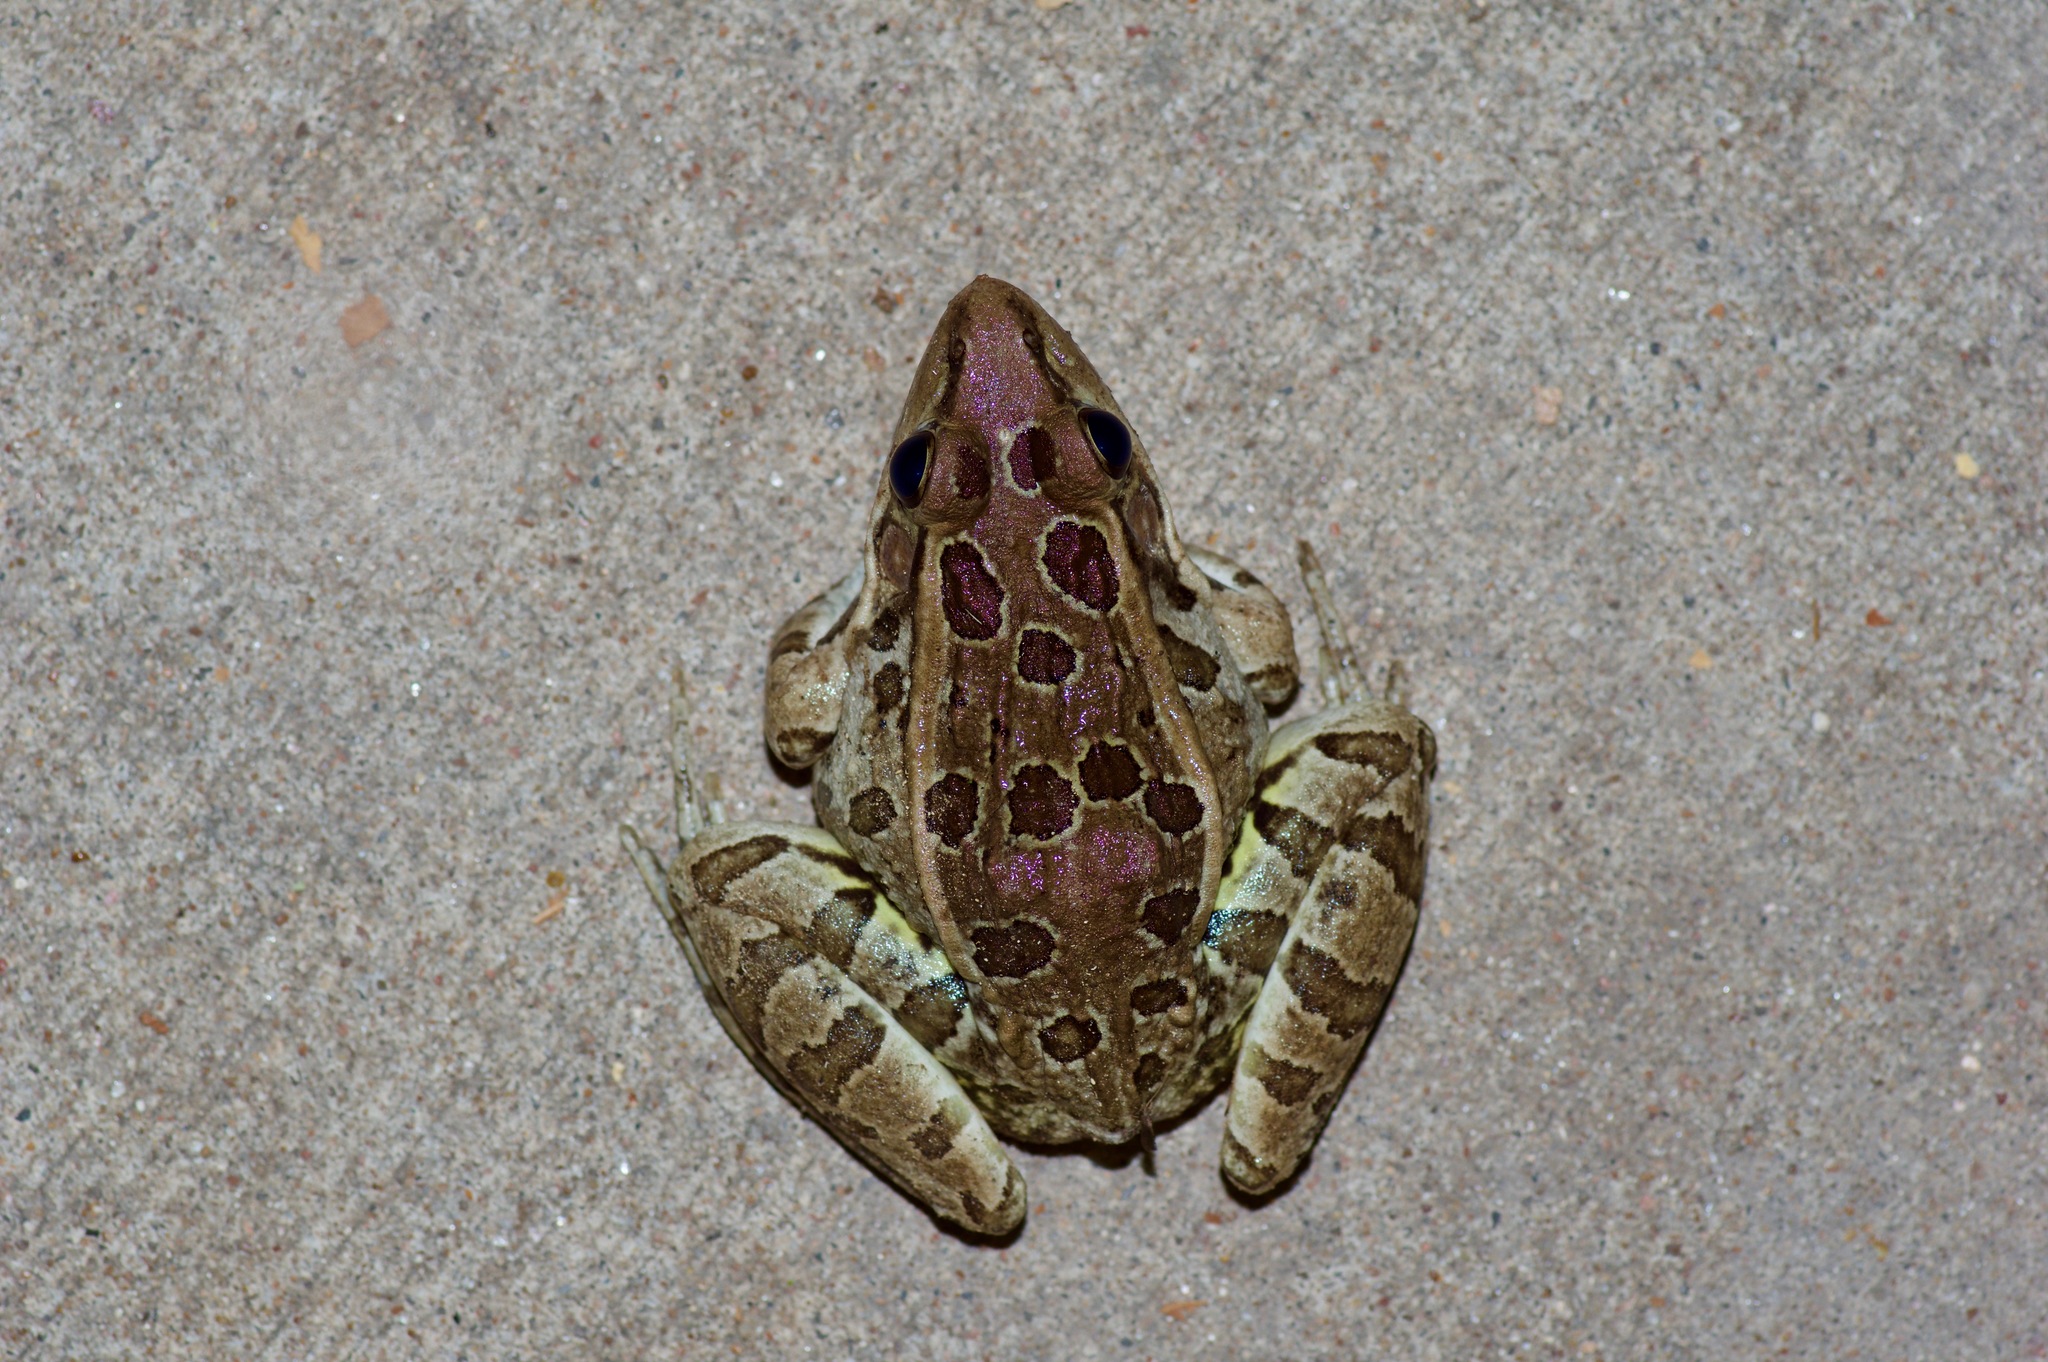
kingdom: Animalia
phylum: Chordata
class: Amphibia
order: Anura
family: Ranidae
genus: Lithobates
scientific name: Lithobates berlandieri
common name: Rio grande leopard frog
